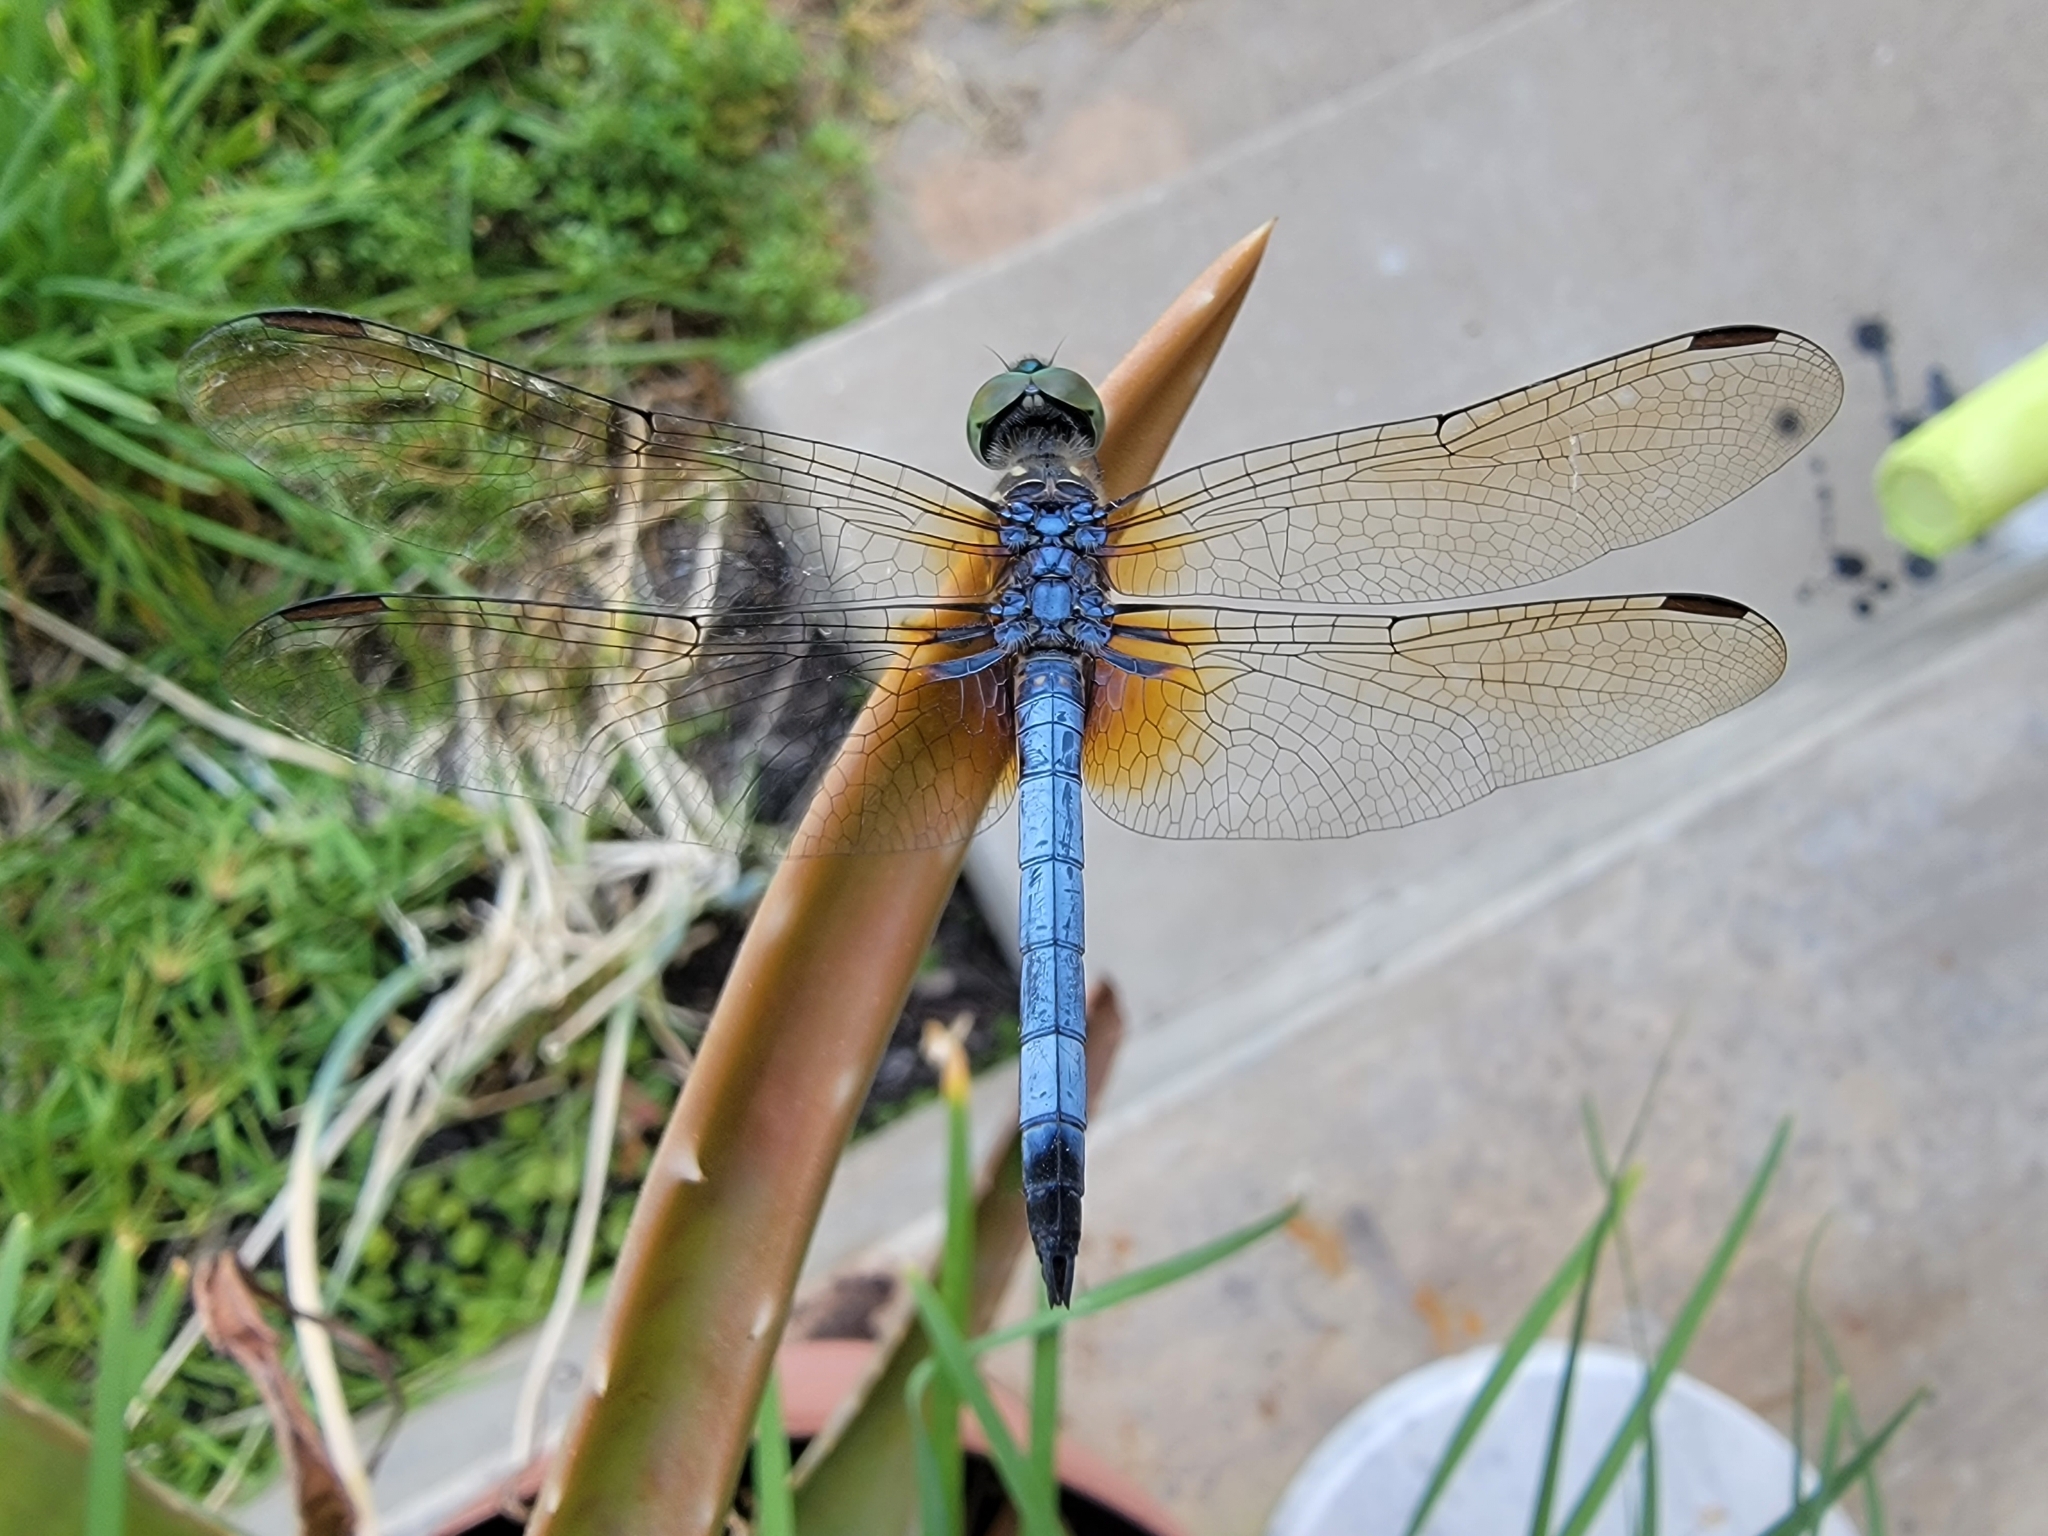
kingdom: Animalia
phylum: Arthropoda
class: Insecta
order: Odonata
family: Libellulidae
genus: Pachydiplax
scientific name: Pachydiplax longipennis
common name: Blue dasher
